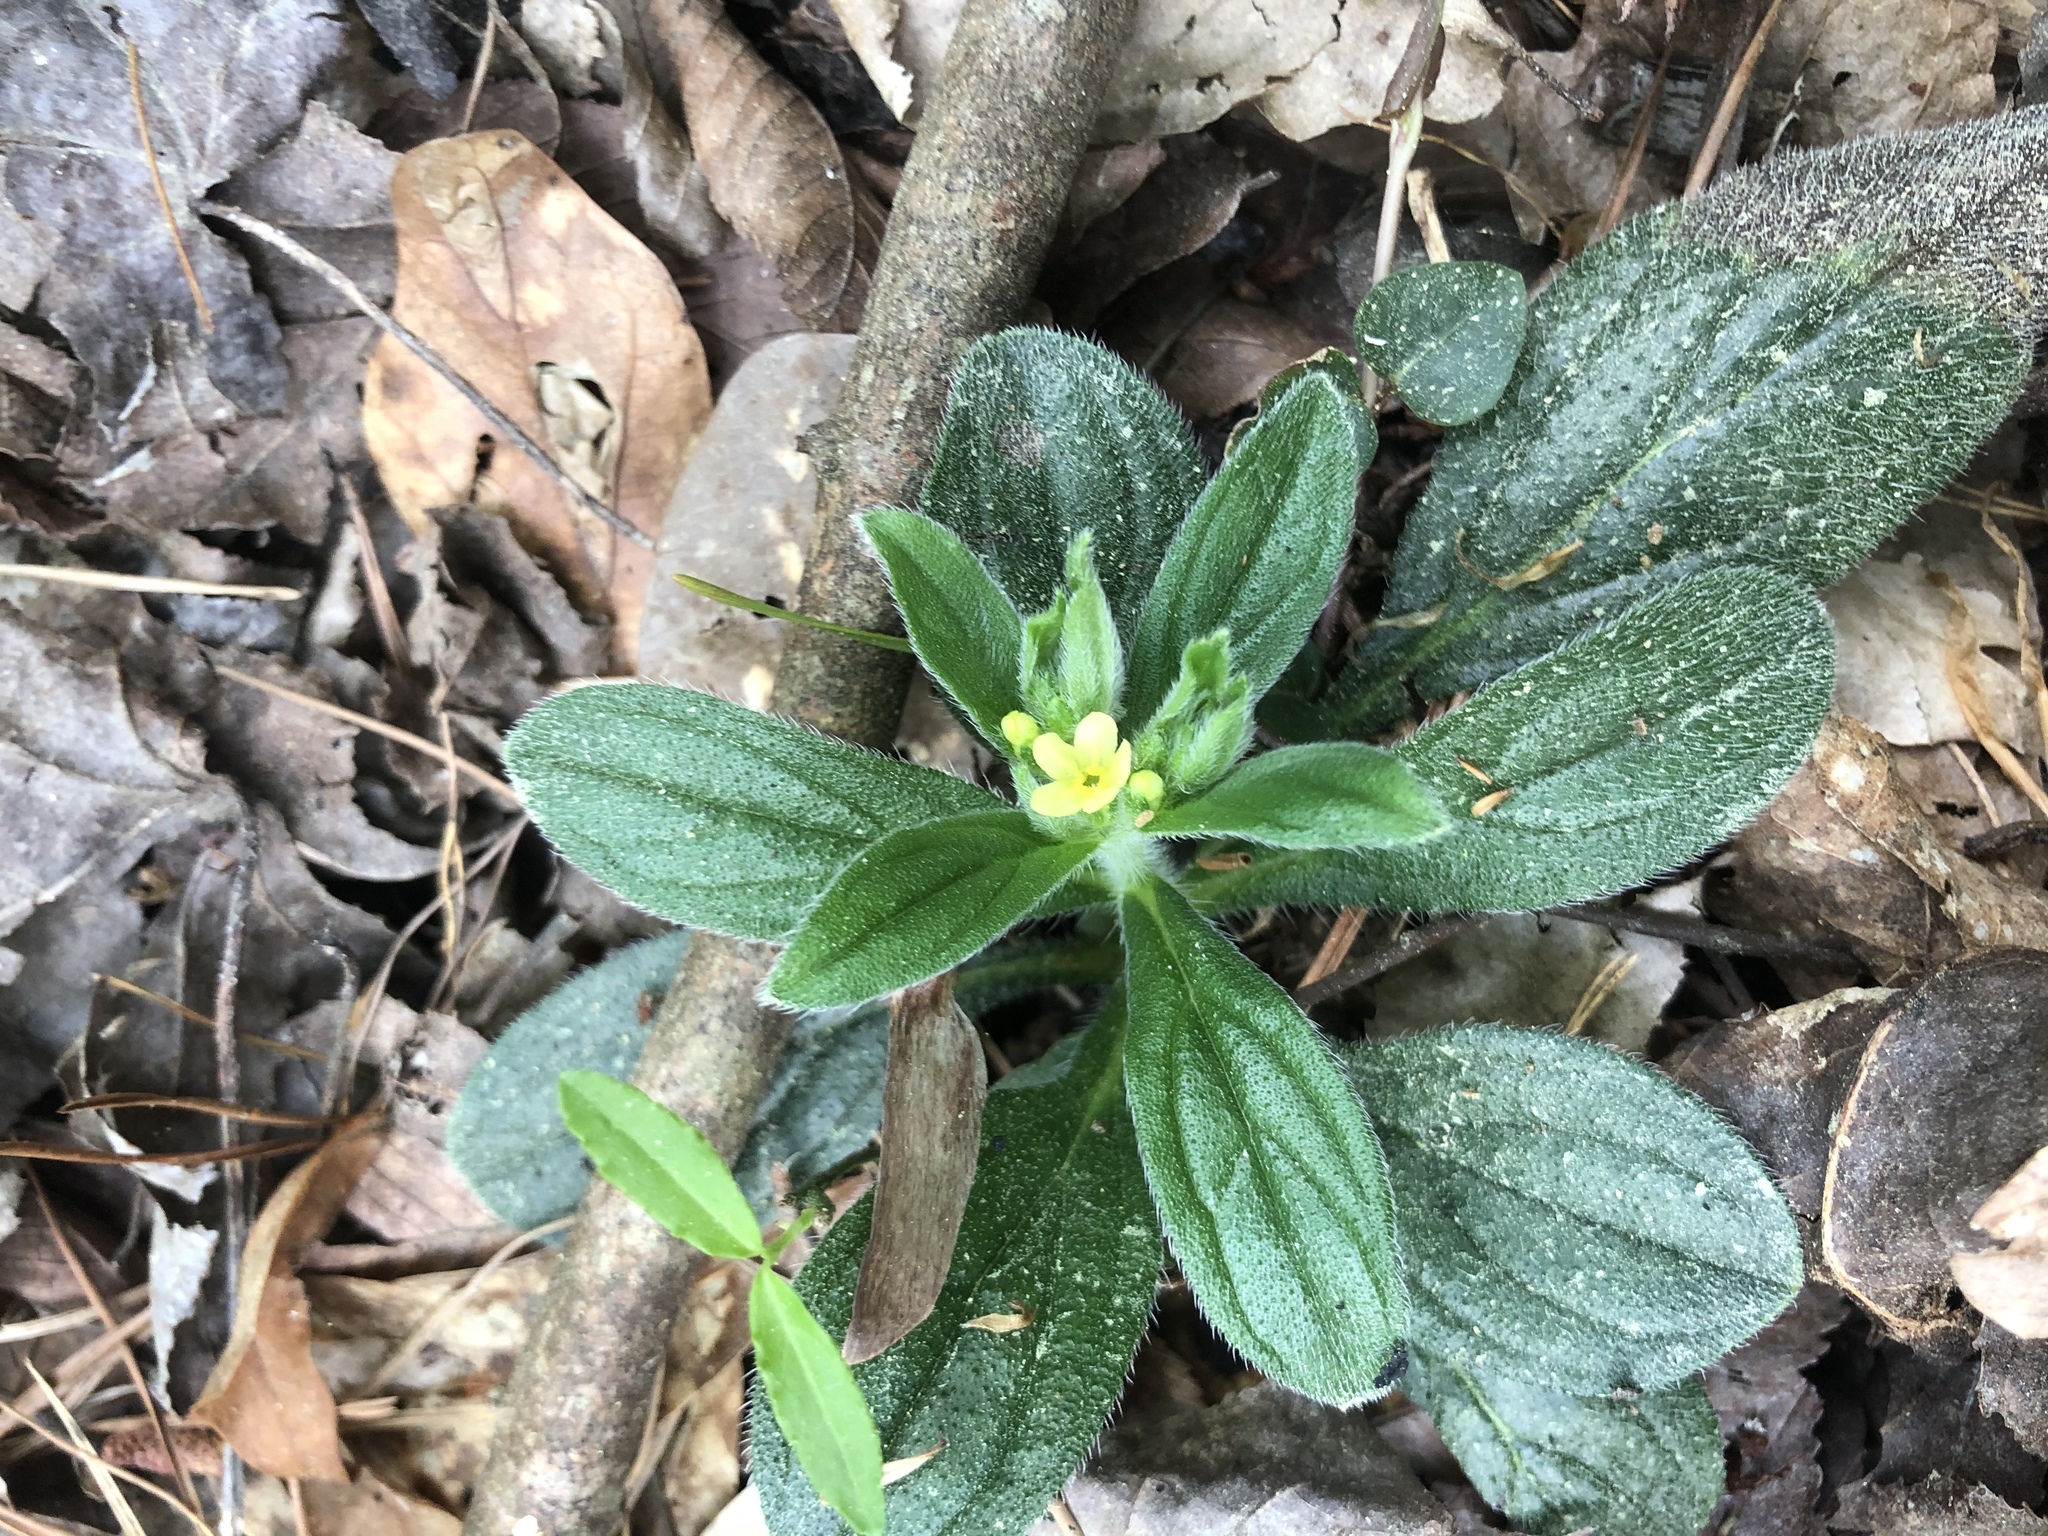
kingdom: Plantae
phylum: Tracheophyta
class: Magnoliopsida
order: Boraginales
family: Boraginaceae
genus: Lithospermum
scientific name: Lithospermum tuberosum
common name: Southern stoneseed
